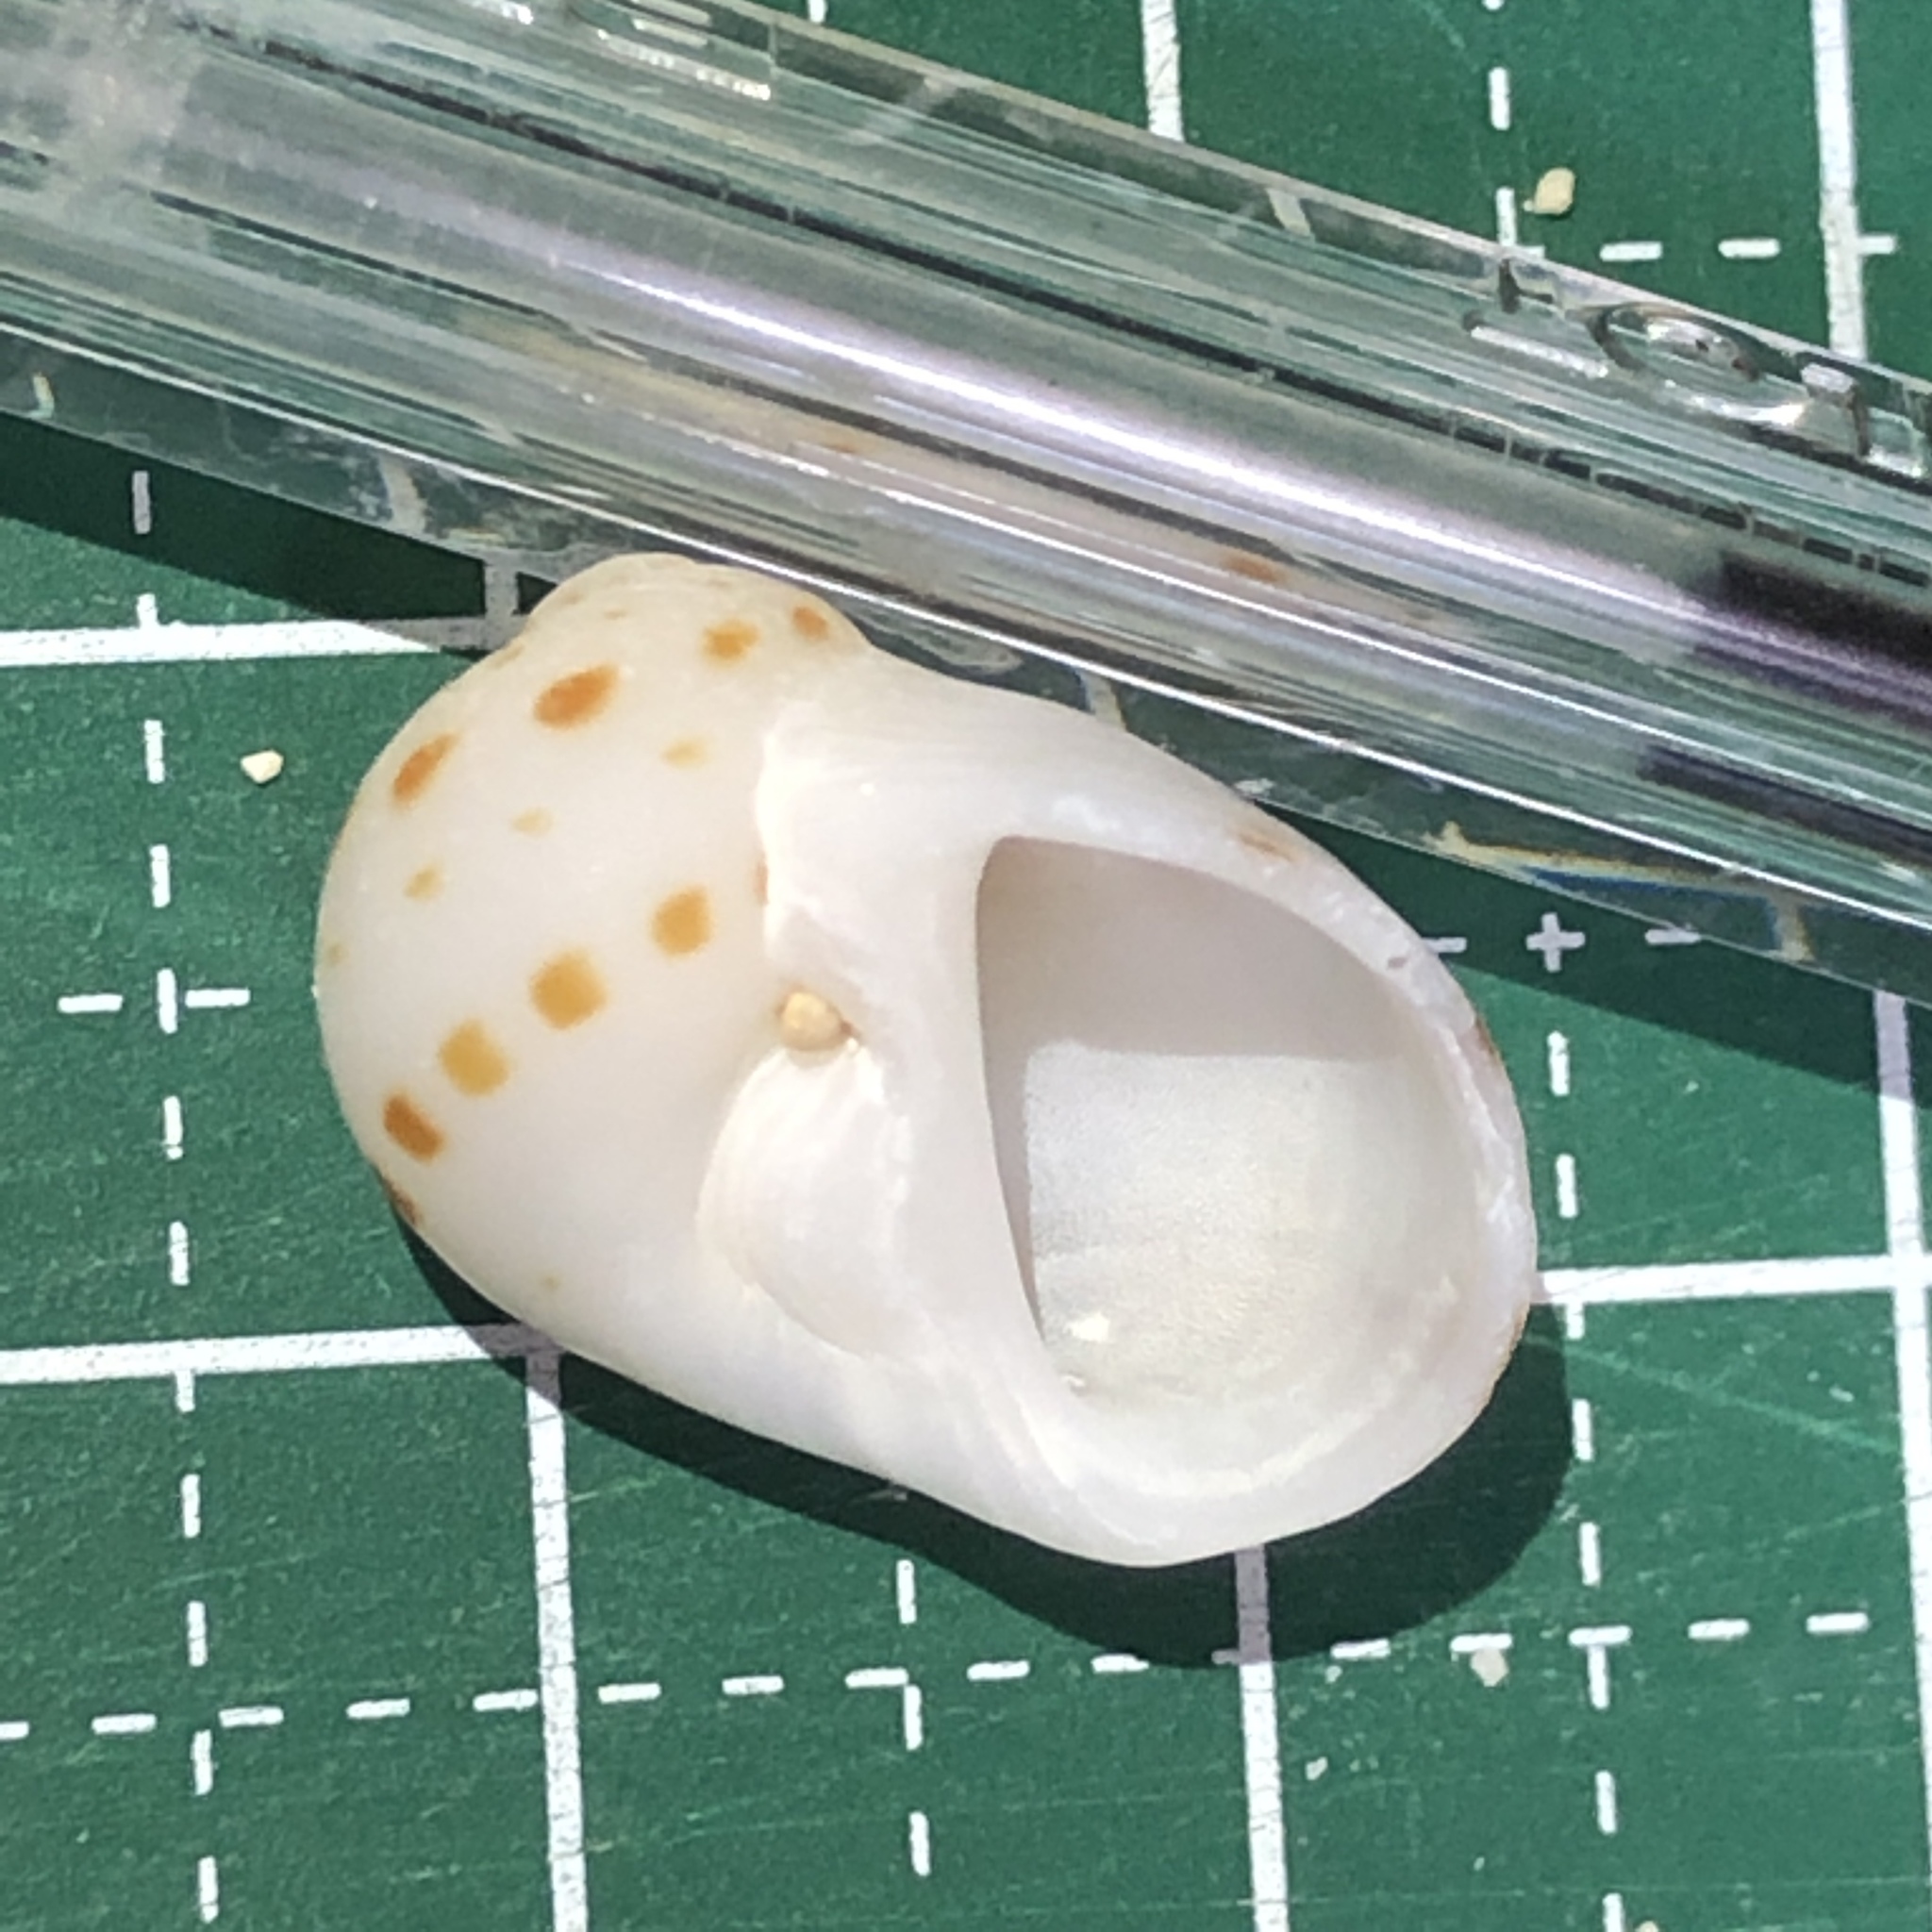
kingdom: Animalia
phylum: Mollusca
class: Gastropoda
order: Littorinimorpha
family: Naticidae
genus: Naticarius
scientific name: Naticarius onca
